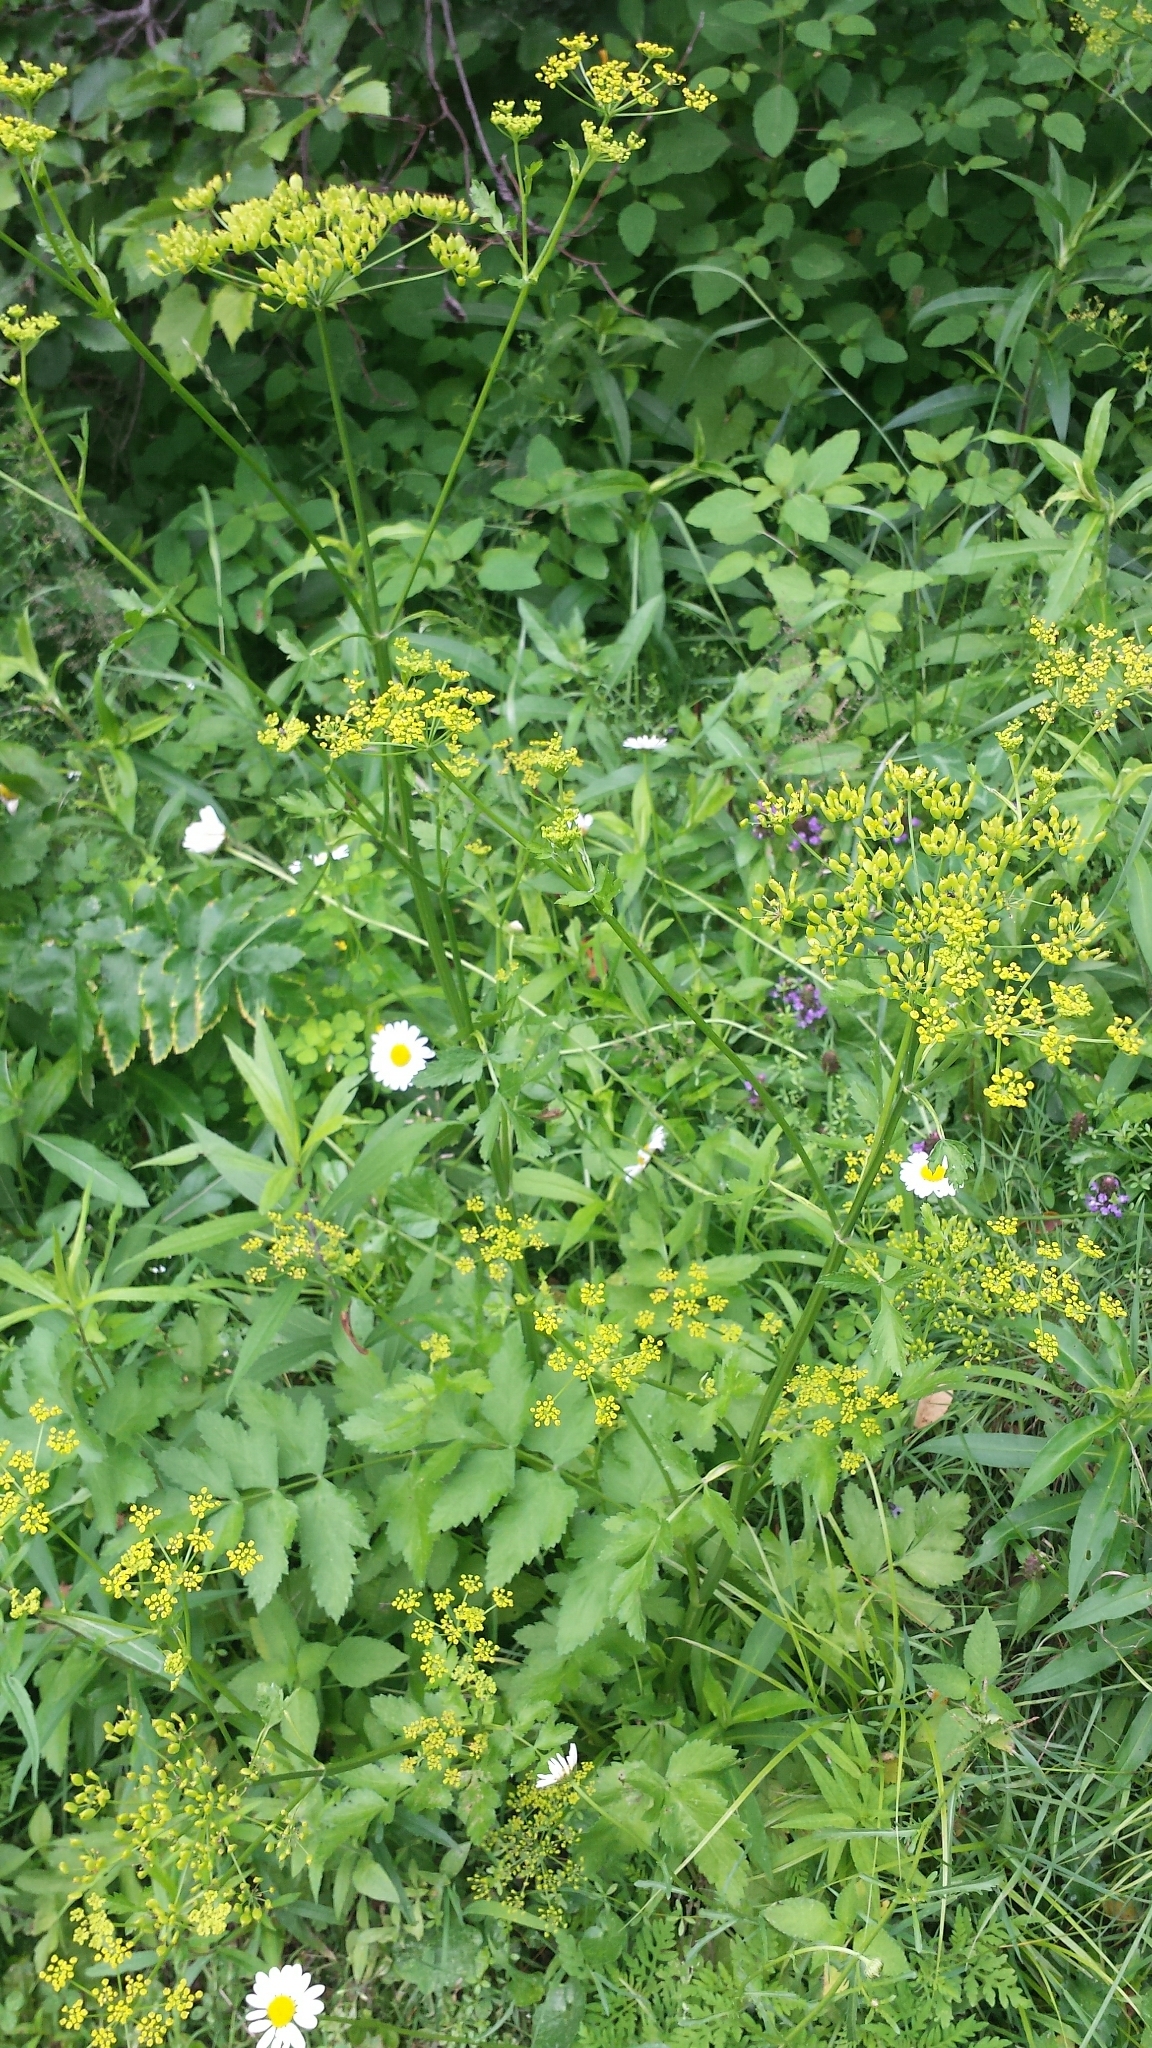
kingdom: Plantae
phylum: Tracheophyta
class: Magnoliopsida
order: Apiales
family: Apiaceae
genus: Pastinaca
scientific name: Pastinaca sativa
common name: Wild parsnip
